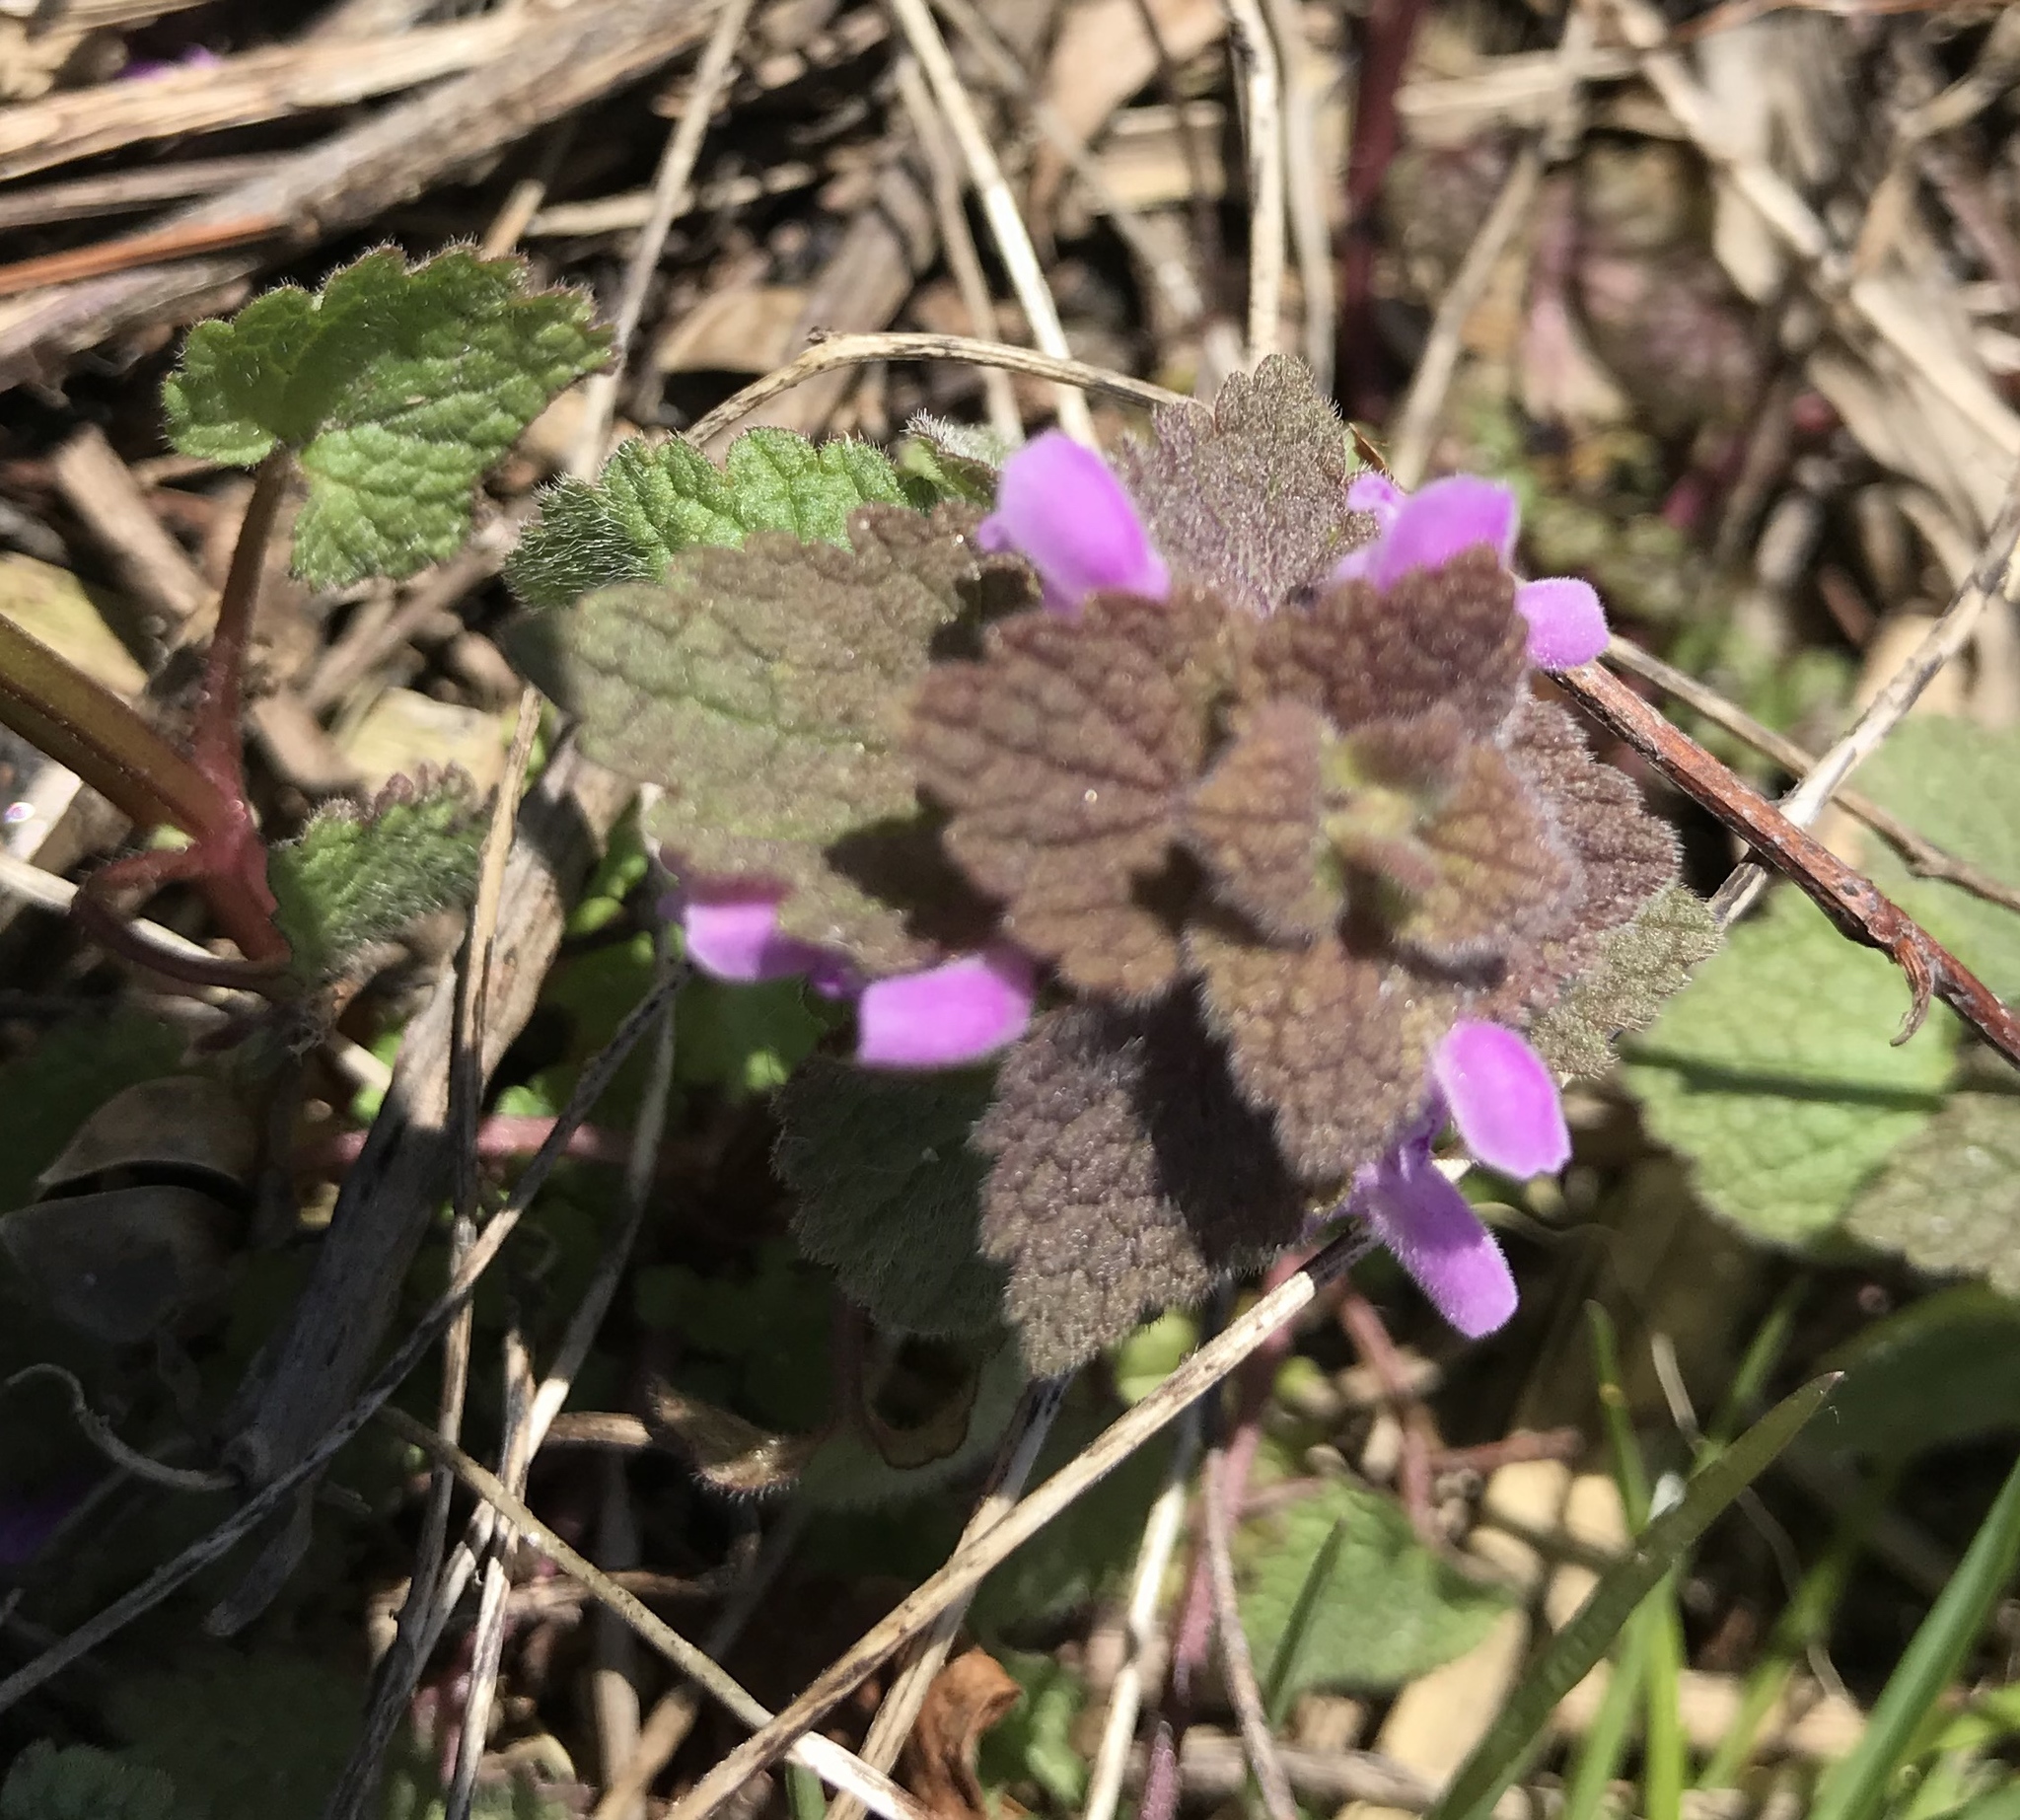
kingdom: Plantae
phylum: Tracheophyta
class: Magnoliopsida
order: Lamiales
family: Lamiaceae
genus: Lamium
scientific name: Lamium purpureum
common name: Red dead-nettle
